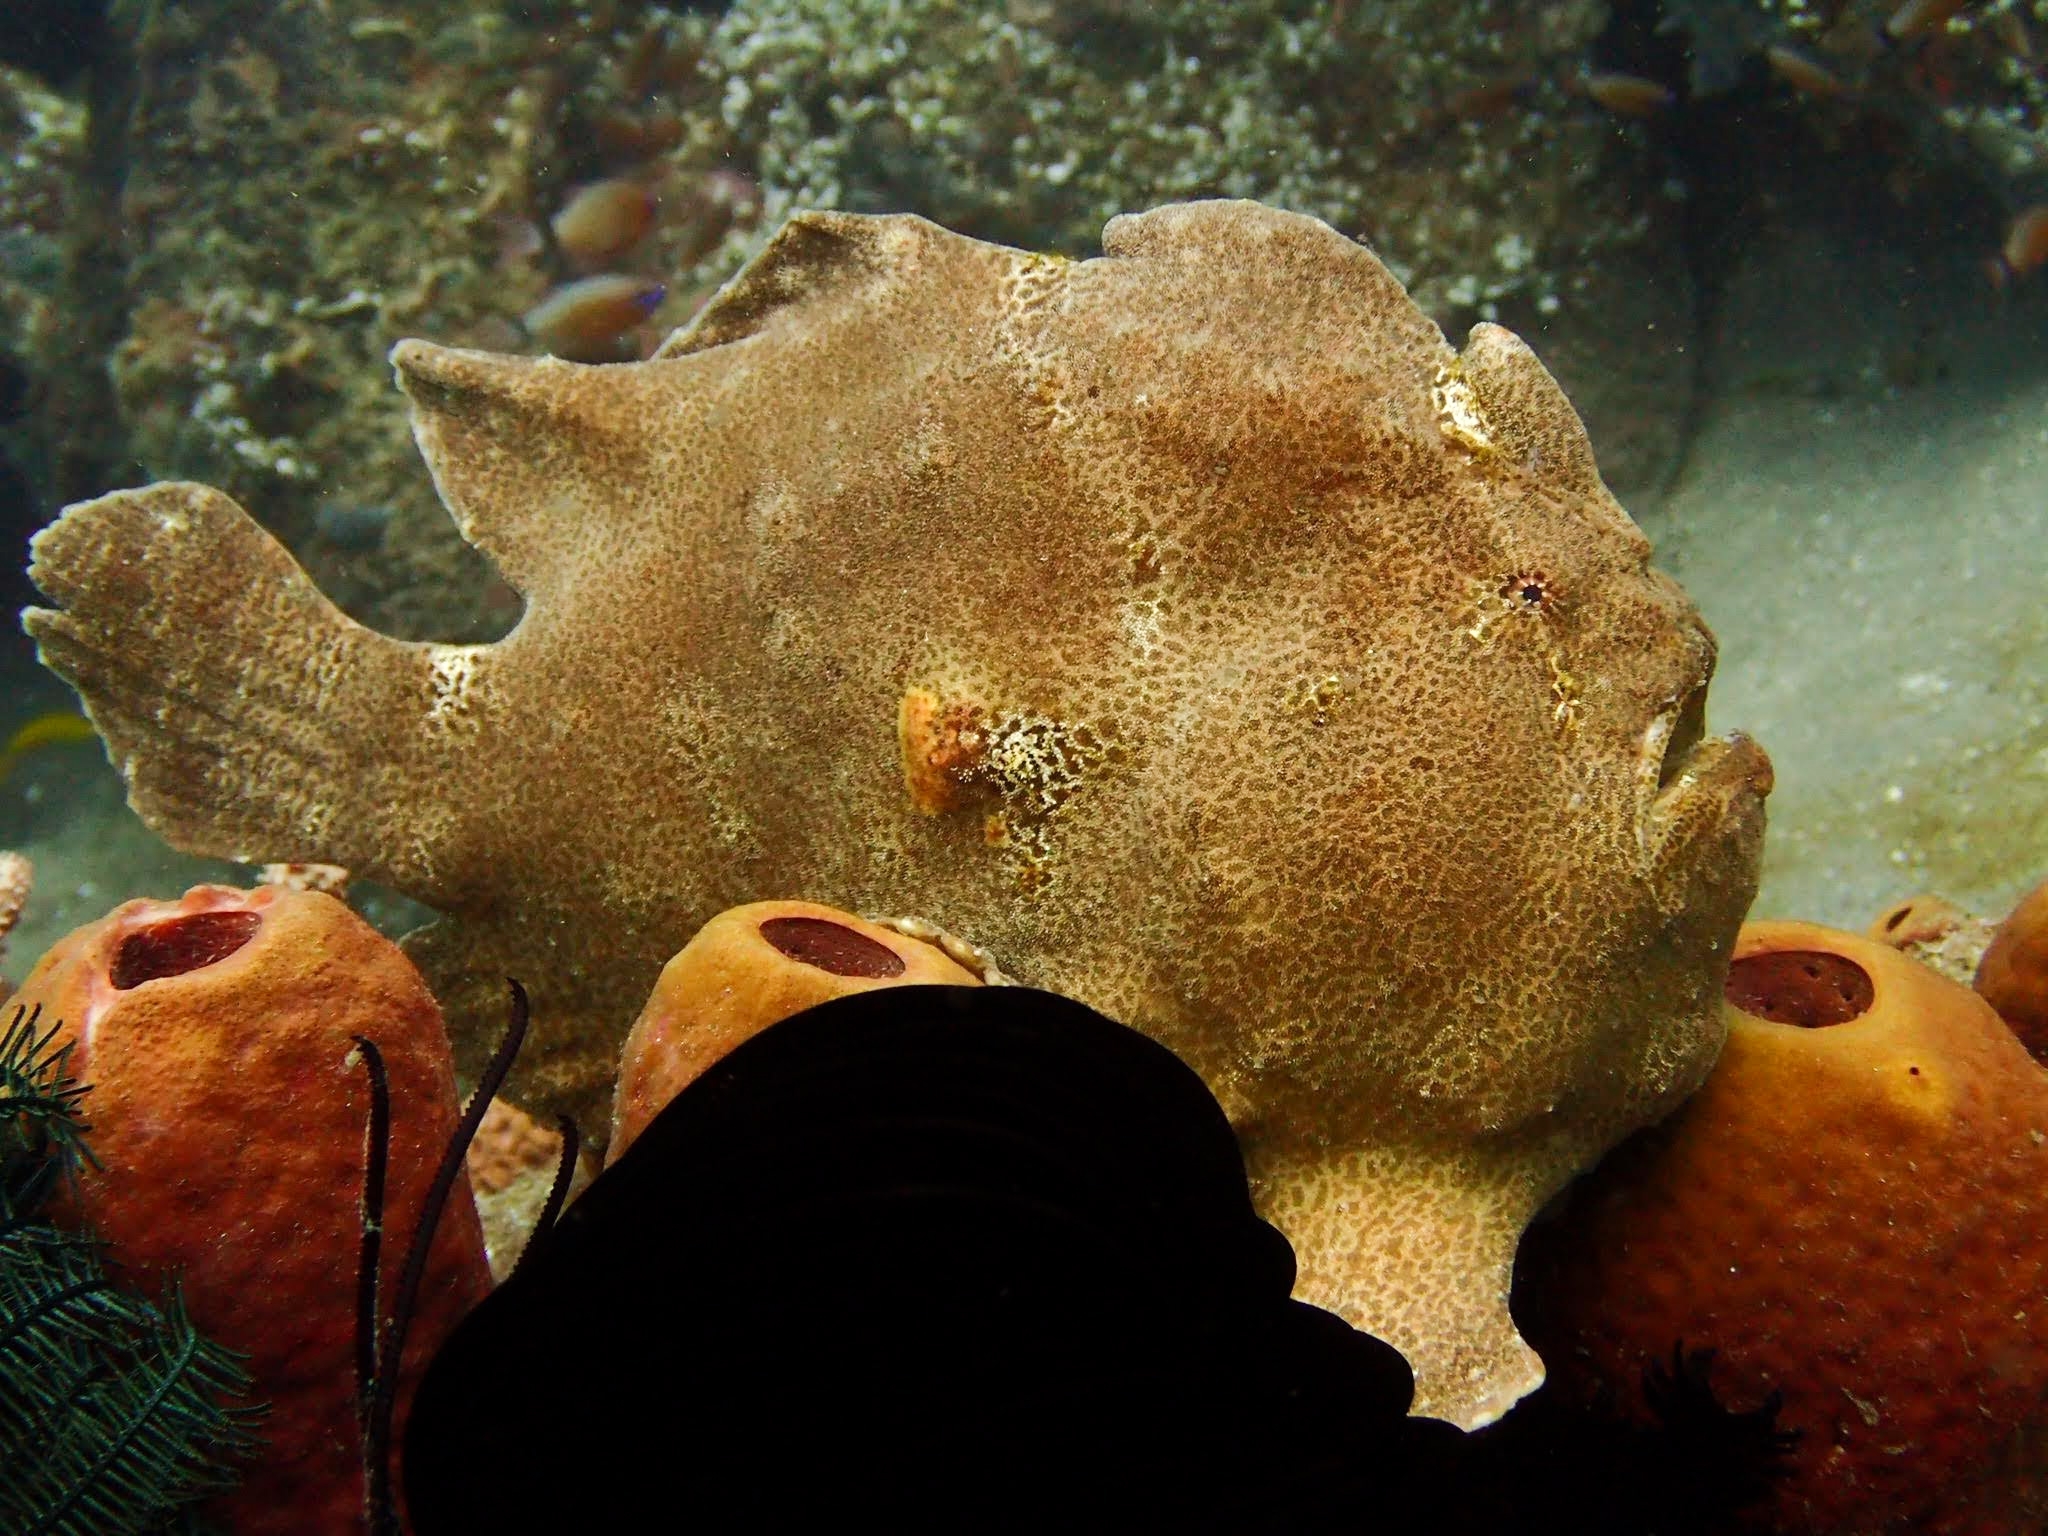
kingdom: Animalia
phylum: Chordata
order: Lophiiformes
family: Antennariidae
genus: Antennarius
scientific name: Antennarius commerson
